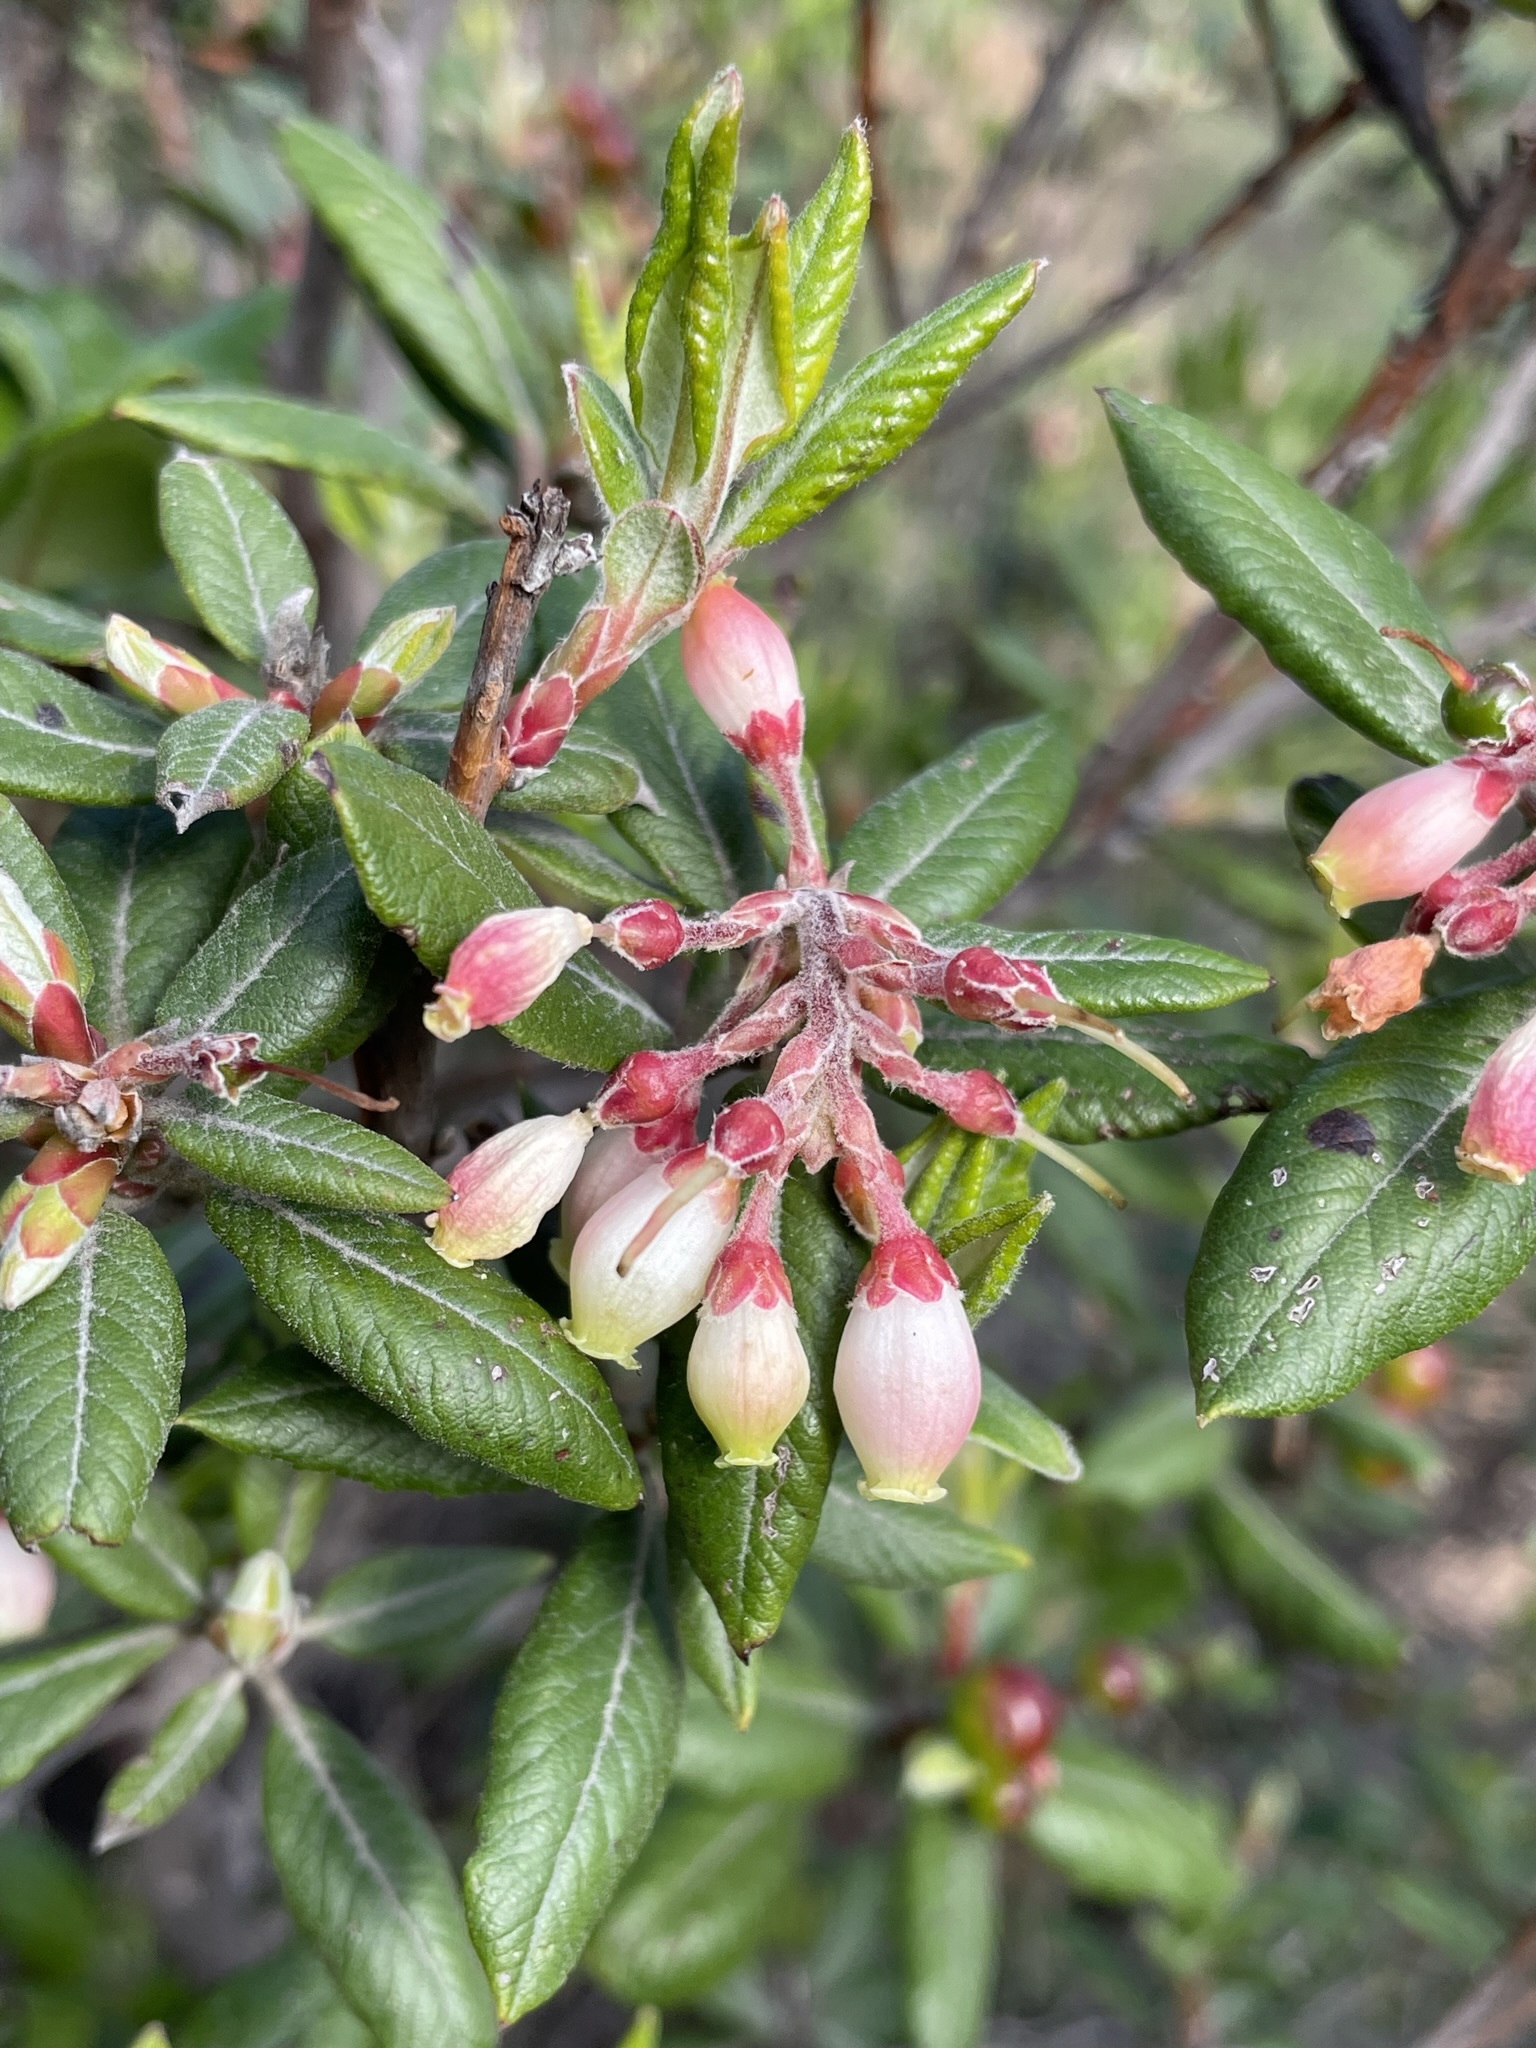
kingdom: Plantae
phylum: Tracheophyta
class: Magnoliopsida
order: Ericales
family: Ericaceae
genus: Arctostaphylos
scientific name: Arctostaphylos bicolor
